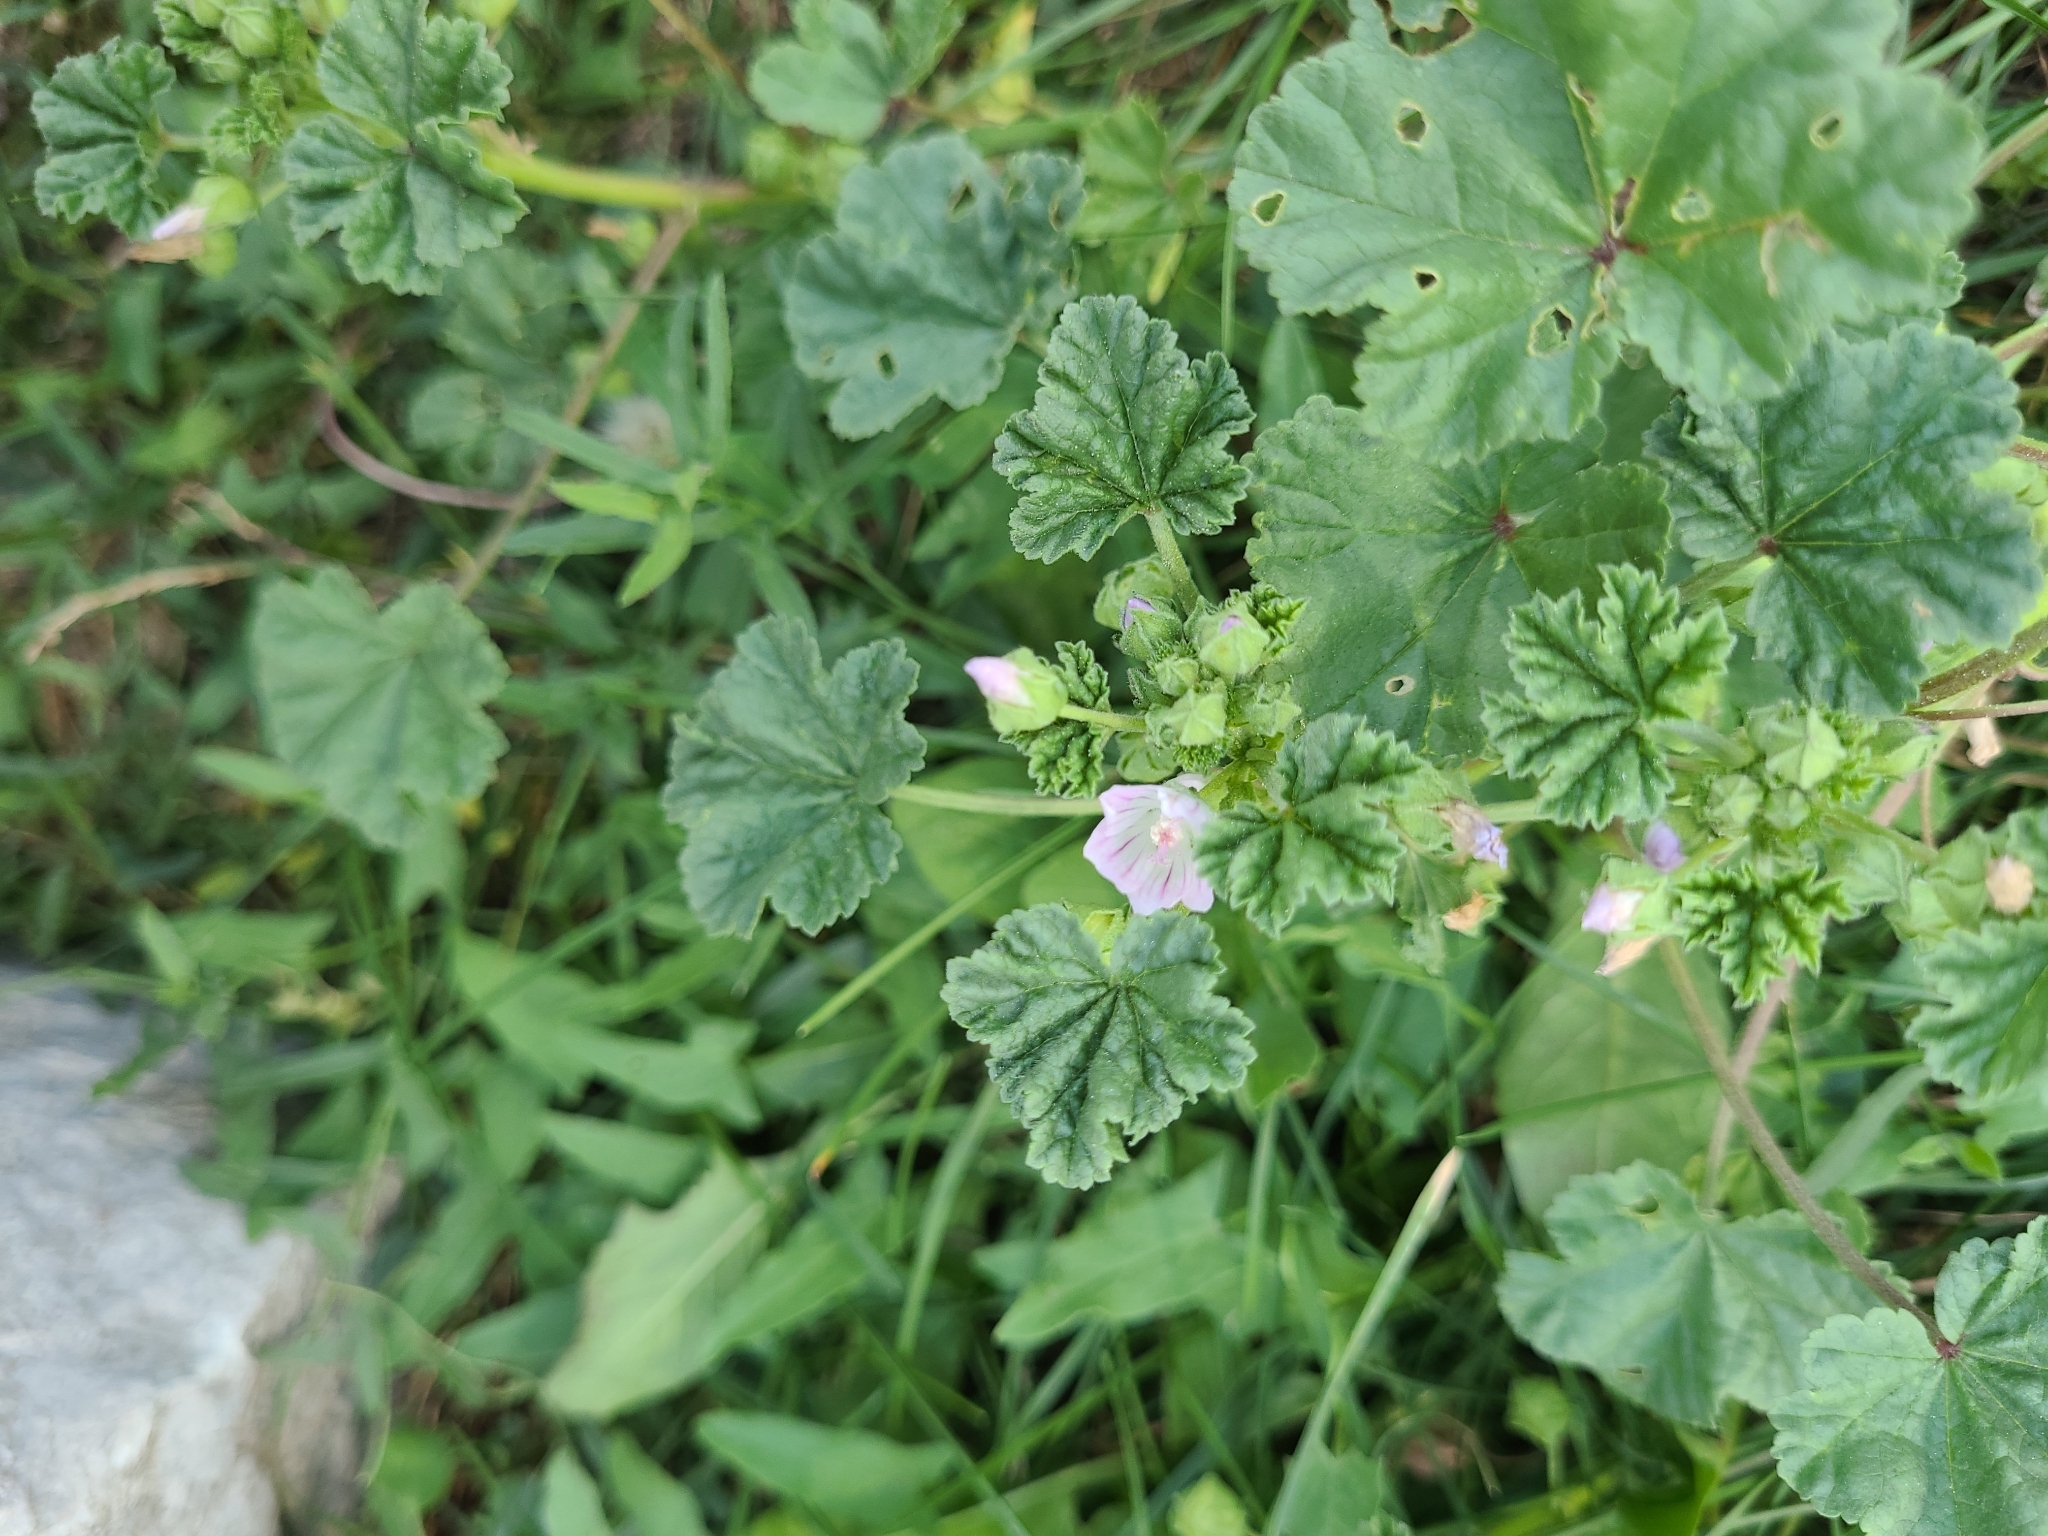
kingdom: Plantae
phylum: Tracheophyta
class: Magnoliopsida
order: Malvales
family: Malvaceae
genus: Malva
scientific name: Malva neglecta
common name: Common mallow
